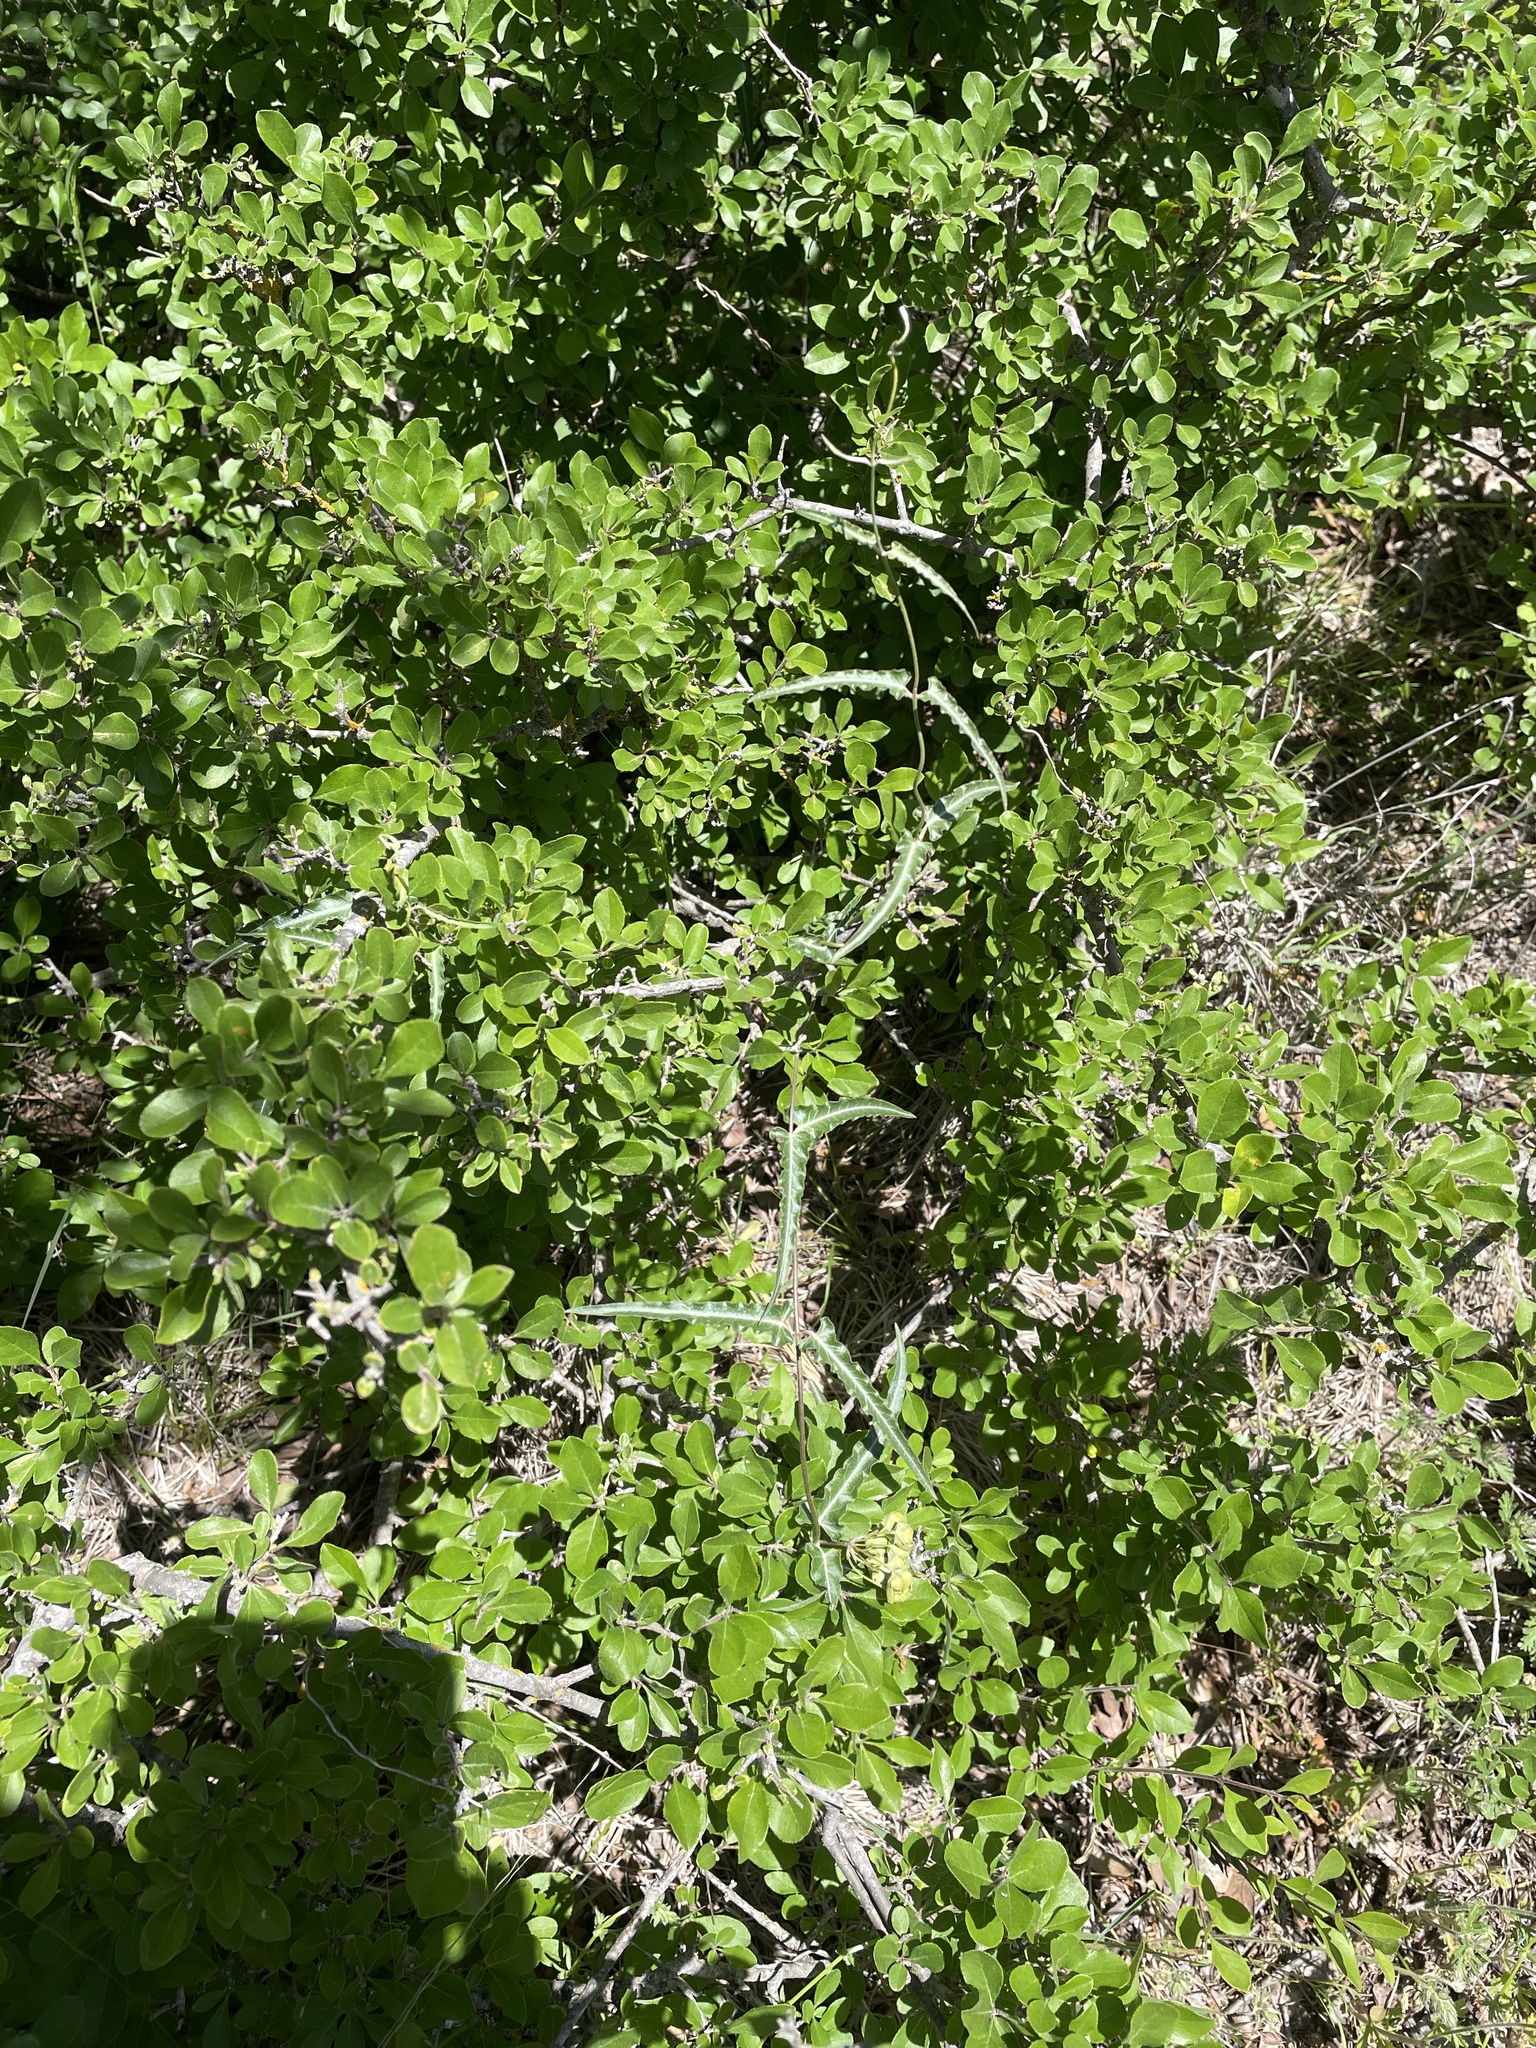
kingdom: Plantae
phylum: Tracheophyta
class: Magnoliopsida
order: Gentianales
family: Apocynaceae
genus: Funastrum
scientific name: Funastrum crispum
